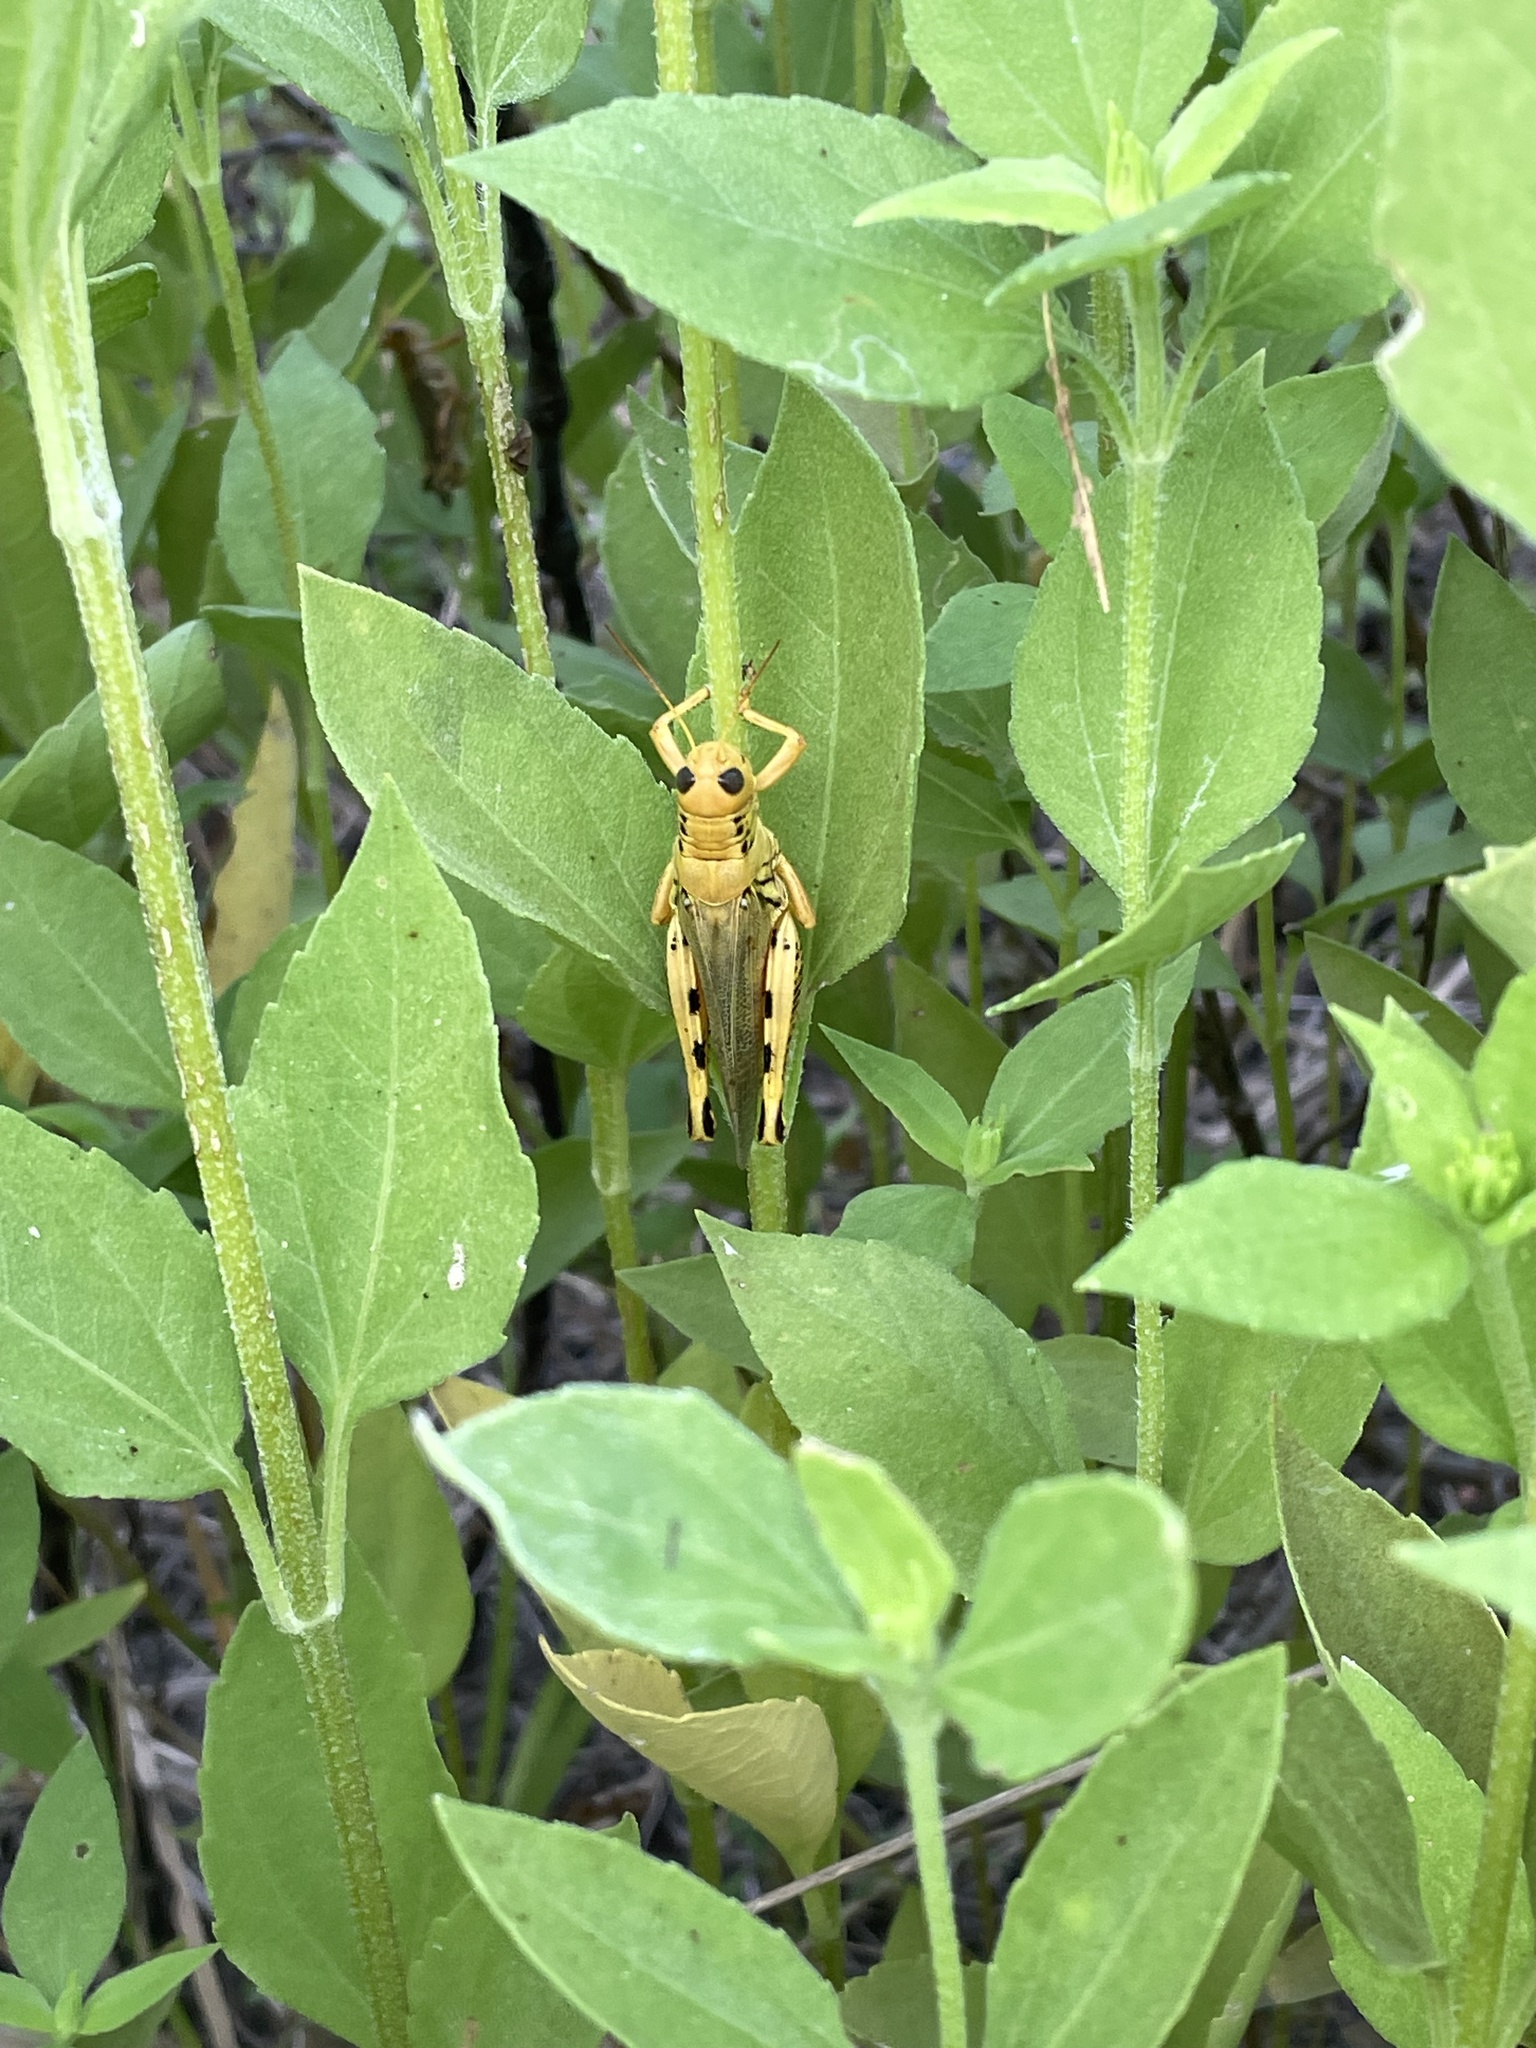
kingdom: Animalia
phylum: Arthropoda
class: Insecta
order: Orthoptera
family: Acrididae
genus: Melanoplus
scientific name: Melanoplus differentialis
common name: Differential grasshopper
